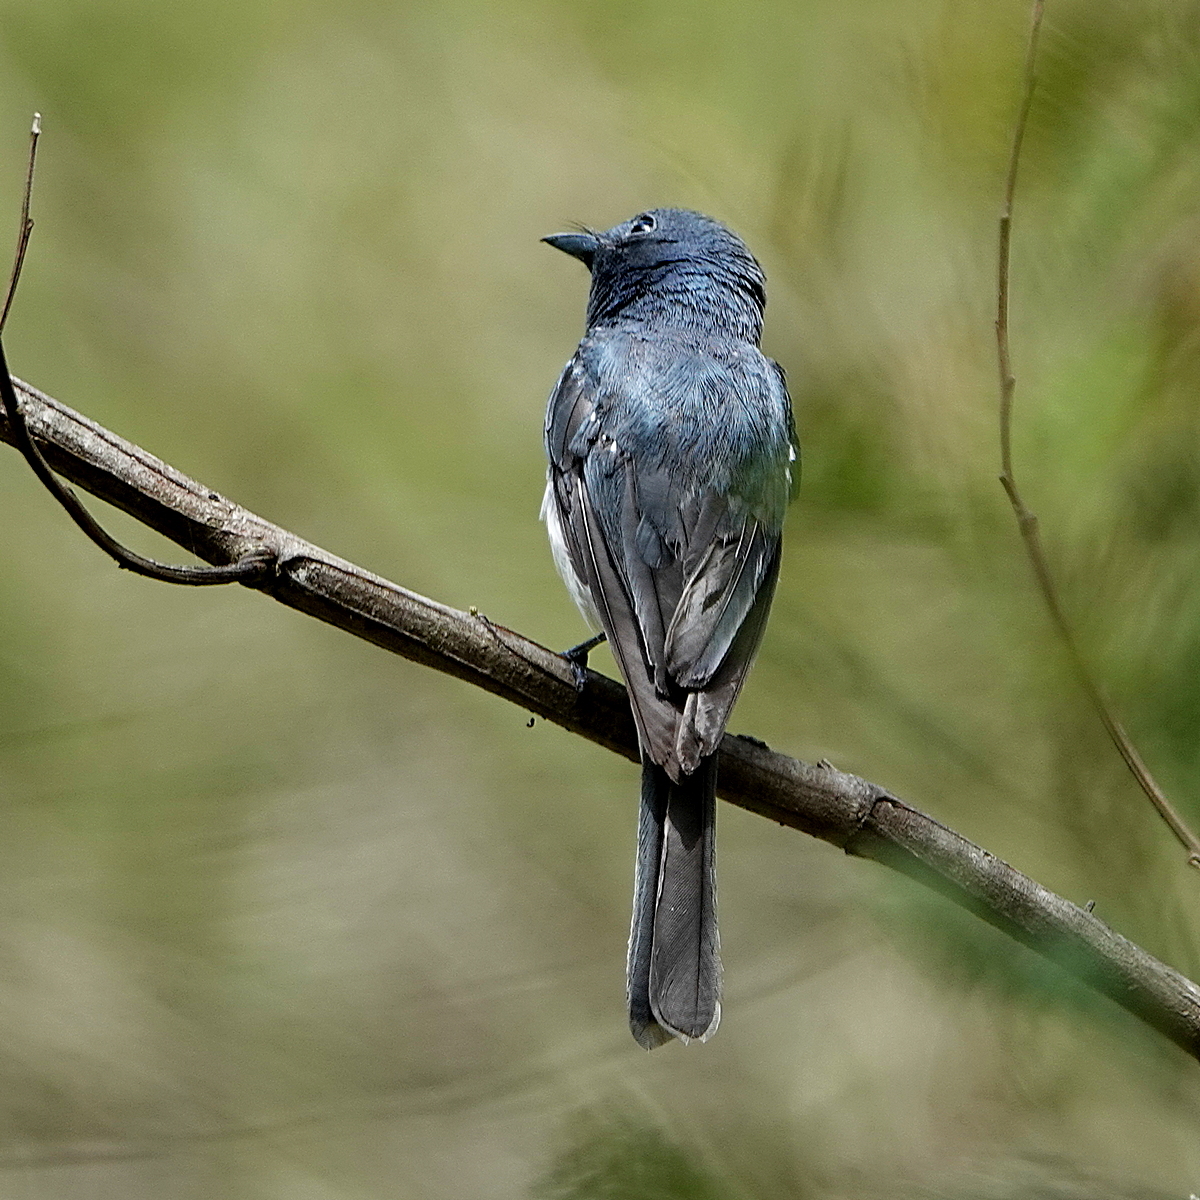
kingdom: Animalia
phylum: Chordata
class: Aves
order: Passeriformes
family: Monarchidae
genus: Myiagra
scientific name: Myiagra rubecula
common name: Leaden flycatcher
